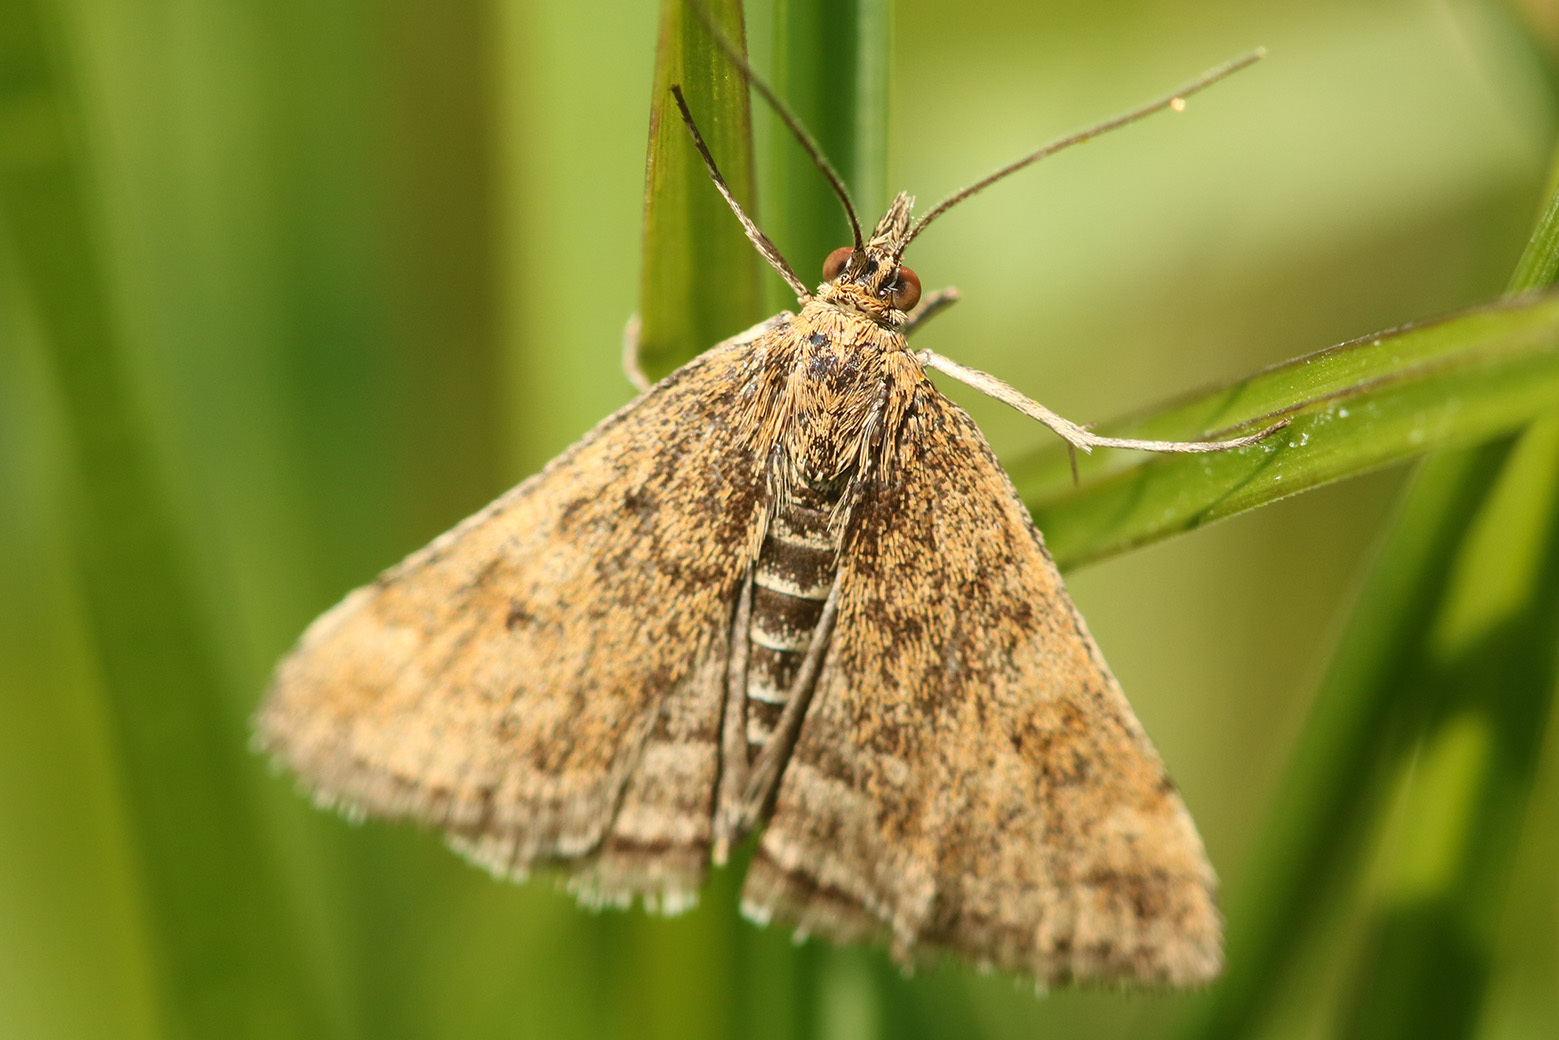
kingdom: Animalia
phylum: Arthropoda
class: Insecta
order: Lepidoptera
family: Crambidae
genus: Pyrausta
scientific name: Pyrausta despicata
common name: Straw-barred pearl
